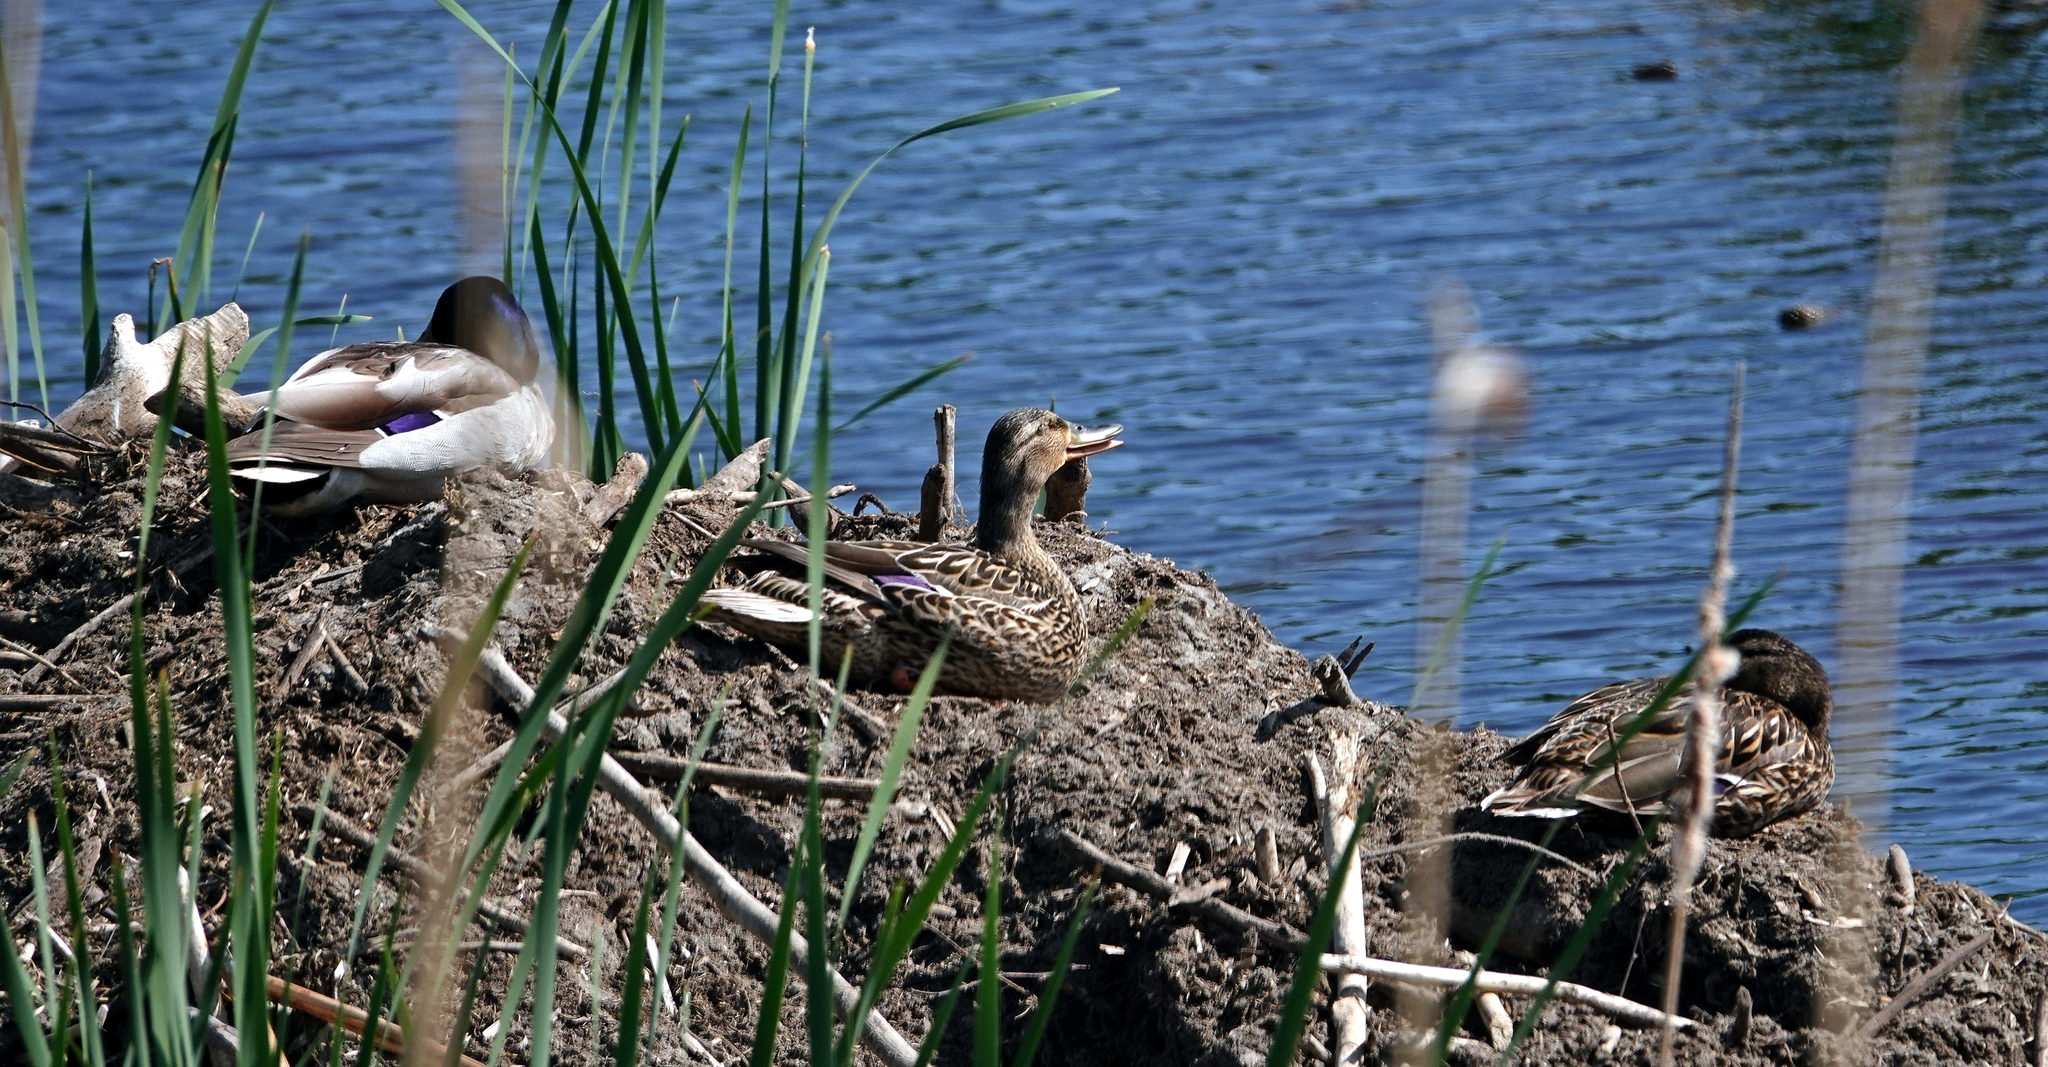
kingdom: Animalia
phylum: Chordata
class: Aves
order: Anseriformes
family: Anatidae
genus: Anas
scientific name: Anas platyrhynchos
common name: Mallard
